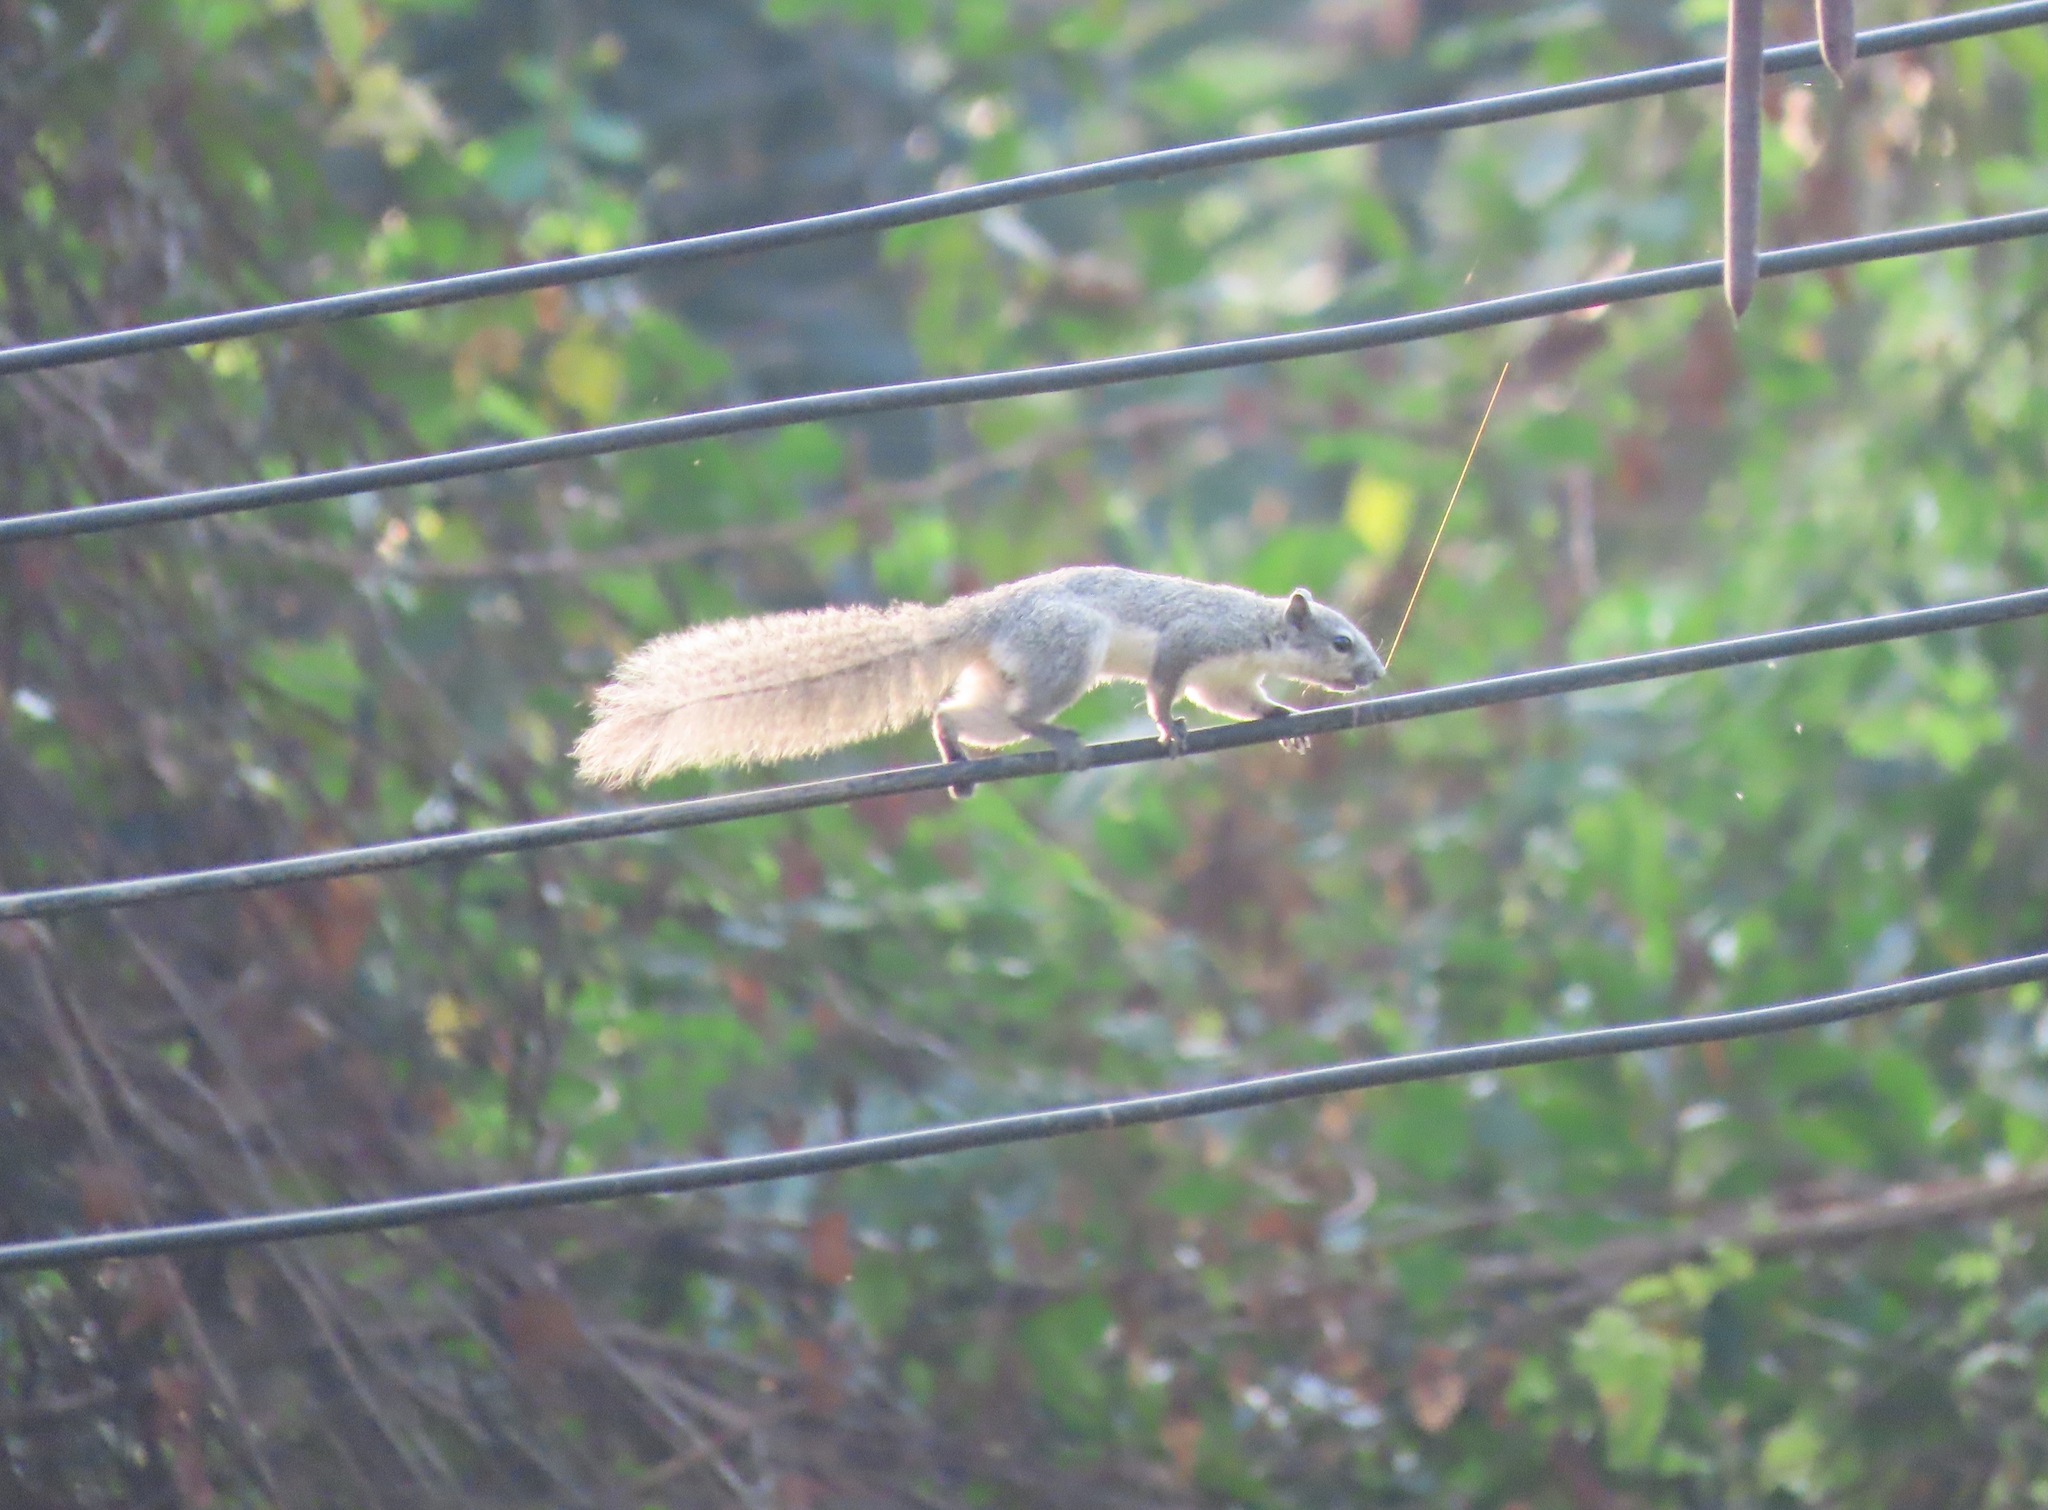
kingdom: Animalia
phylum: Chordata
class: Mammalia
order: Rodentia
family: Sciuridae
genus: Callosciurus
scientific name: Callosciurus finlaysonii
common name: Finlayson's squirrel
